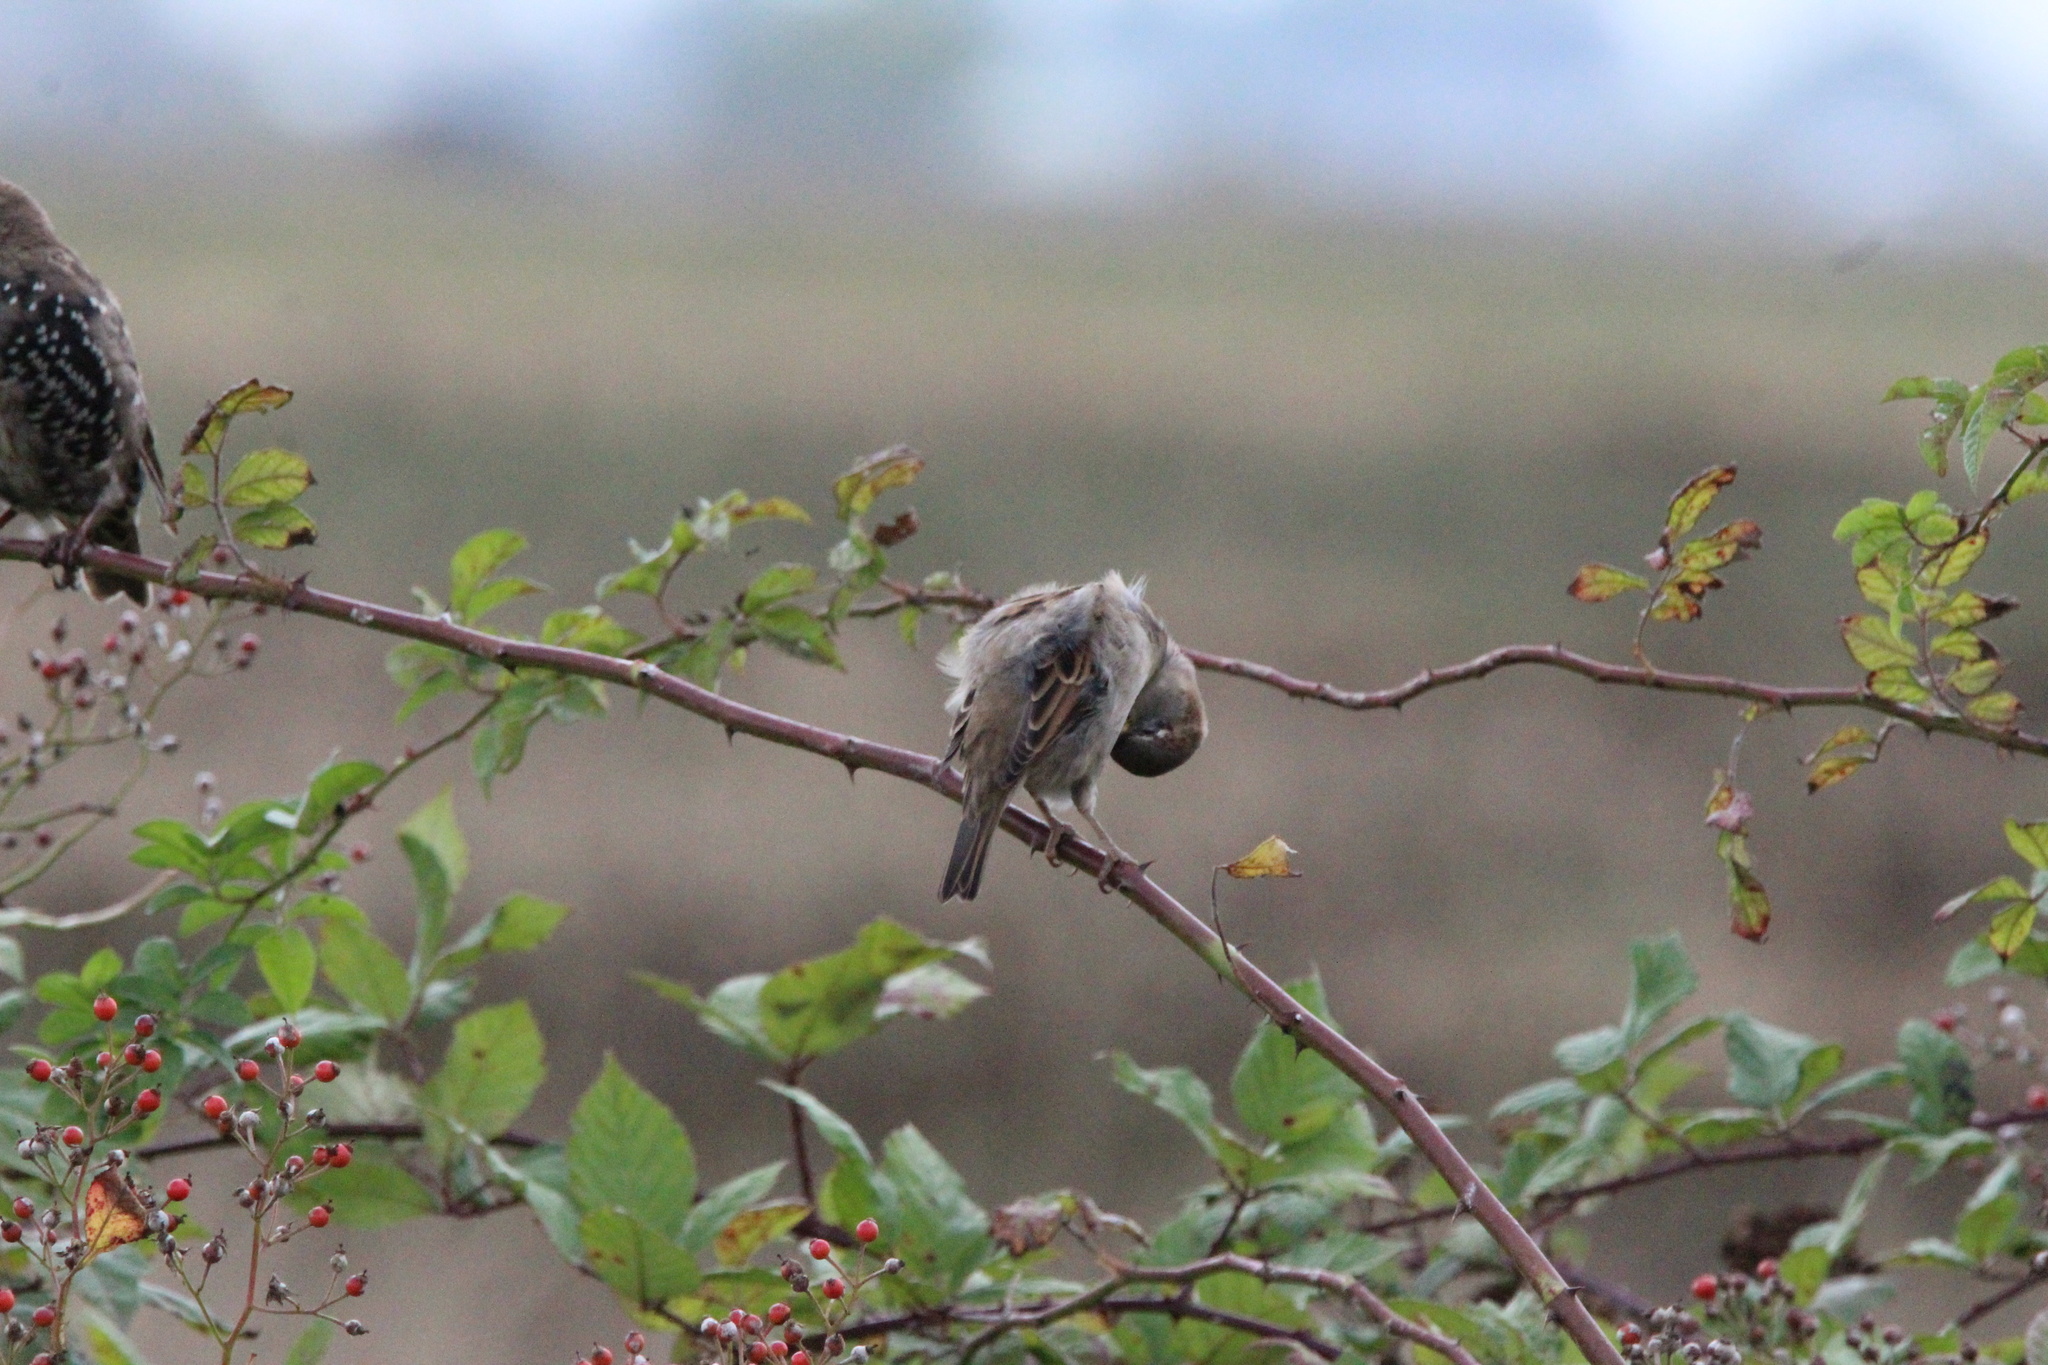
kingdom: Animalia
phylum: Chordata
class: Aves
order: Passeriformes
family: Passeridae
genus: Passer
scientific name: Passer domesticus
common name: House sparrow
